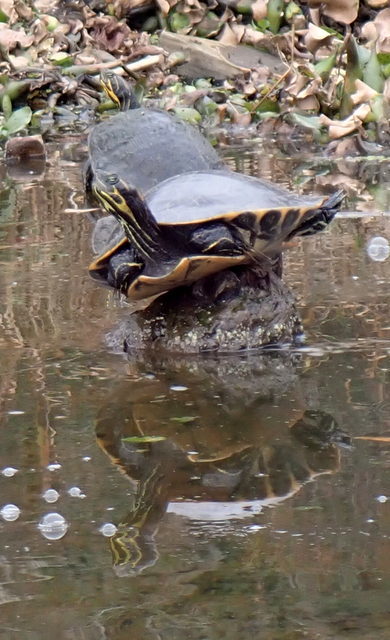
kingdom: Animalia
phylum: Chordata
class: Testudines
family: Emydidae
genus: Pseudemys
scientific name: Pseudemys concinna
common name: Eastern river cooter
